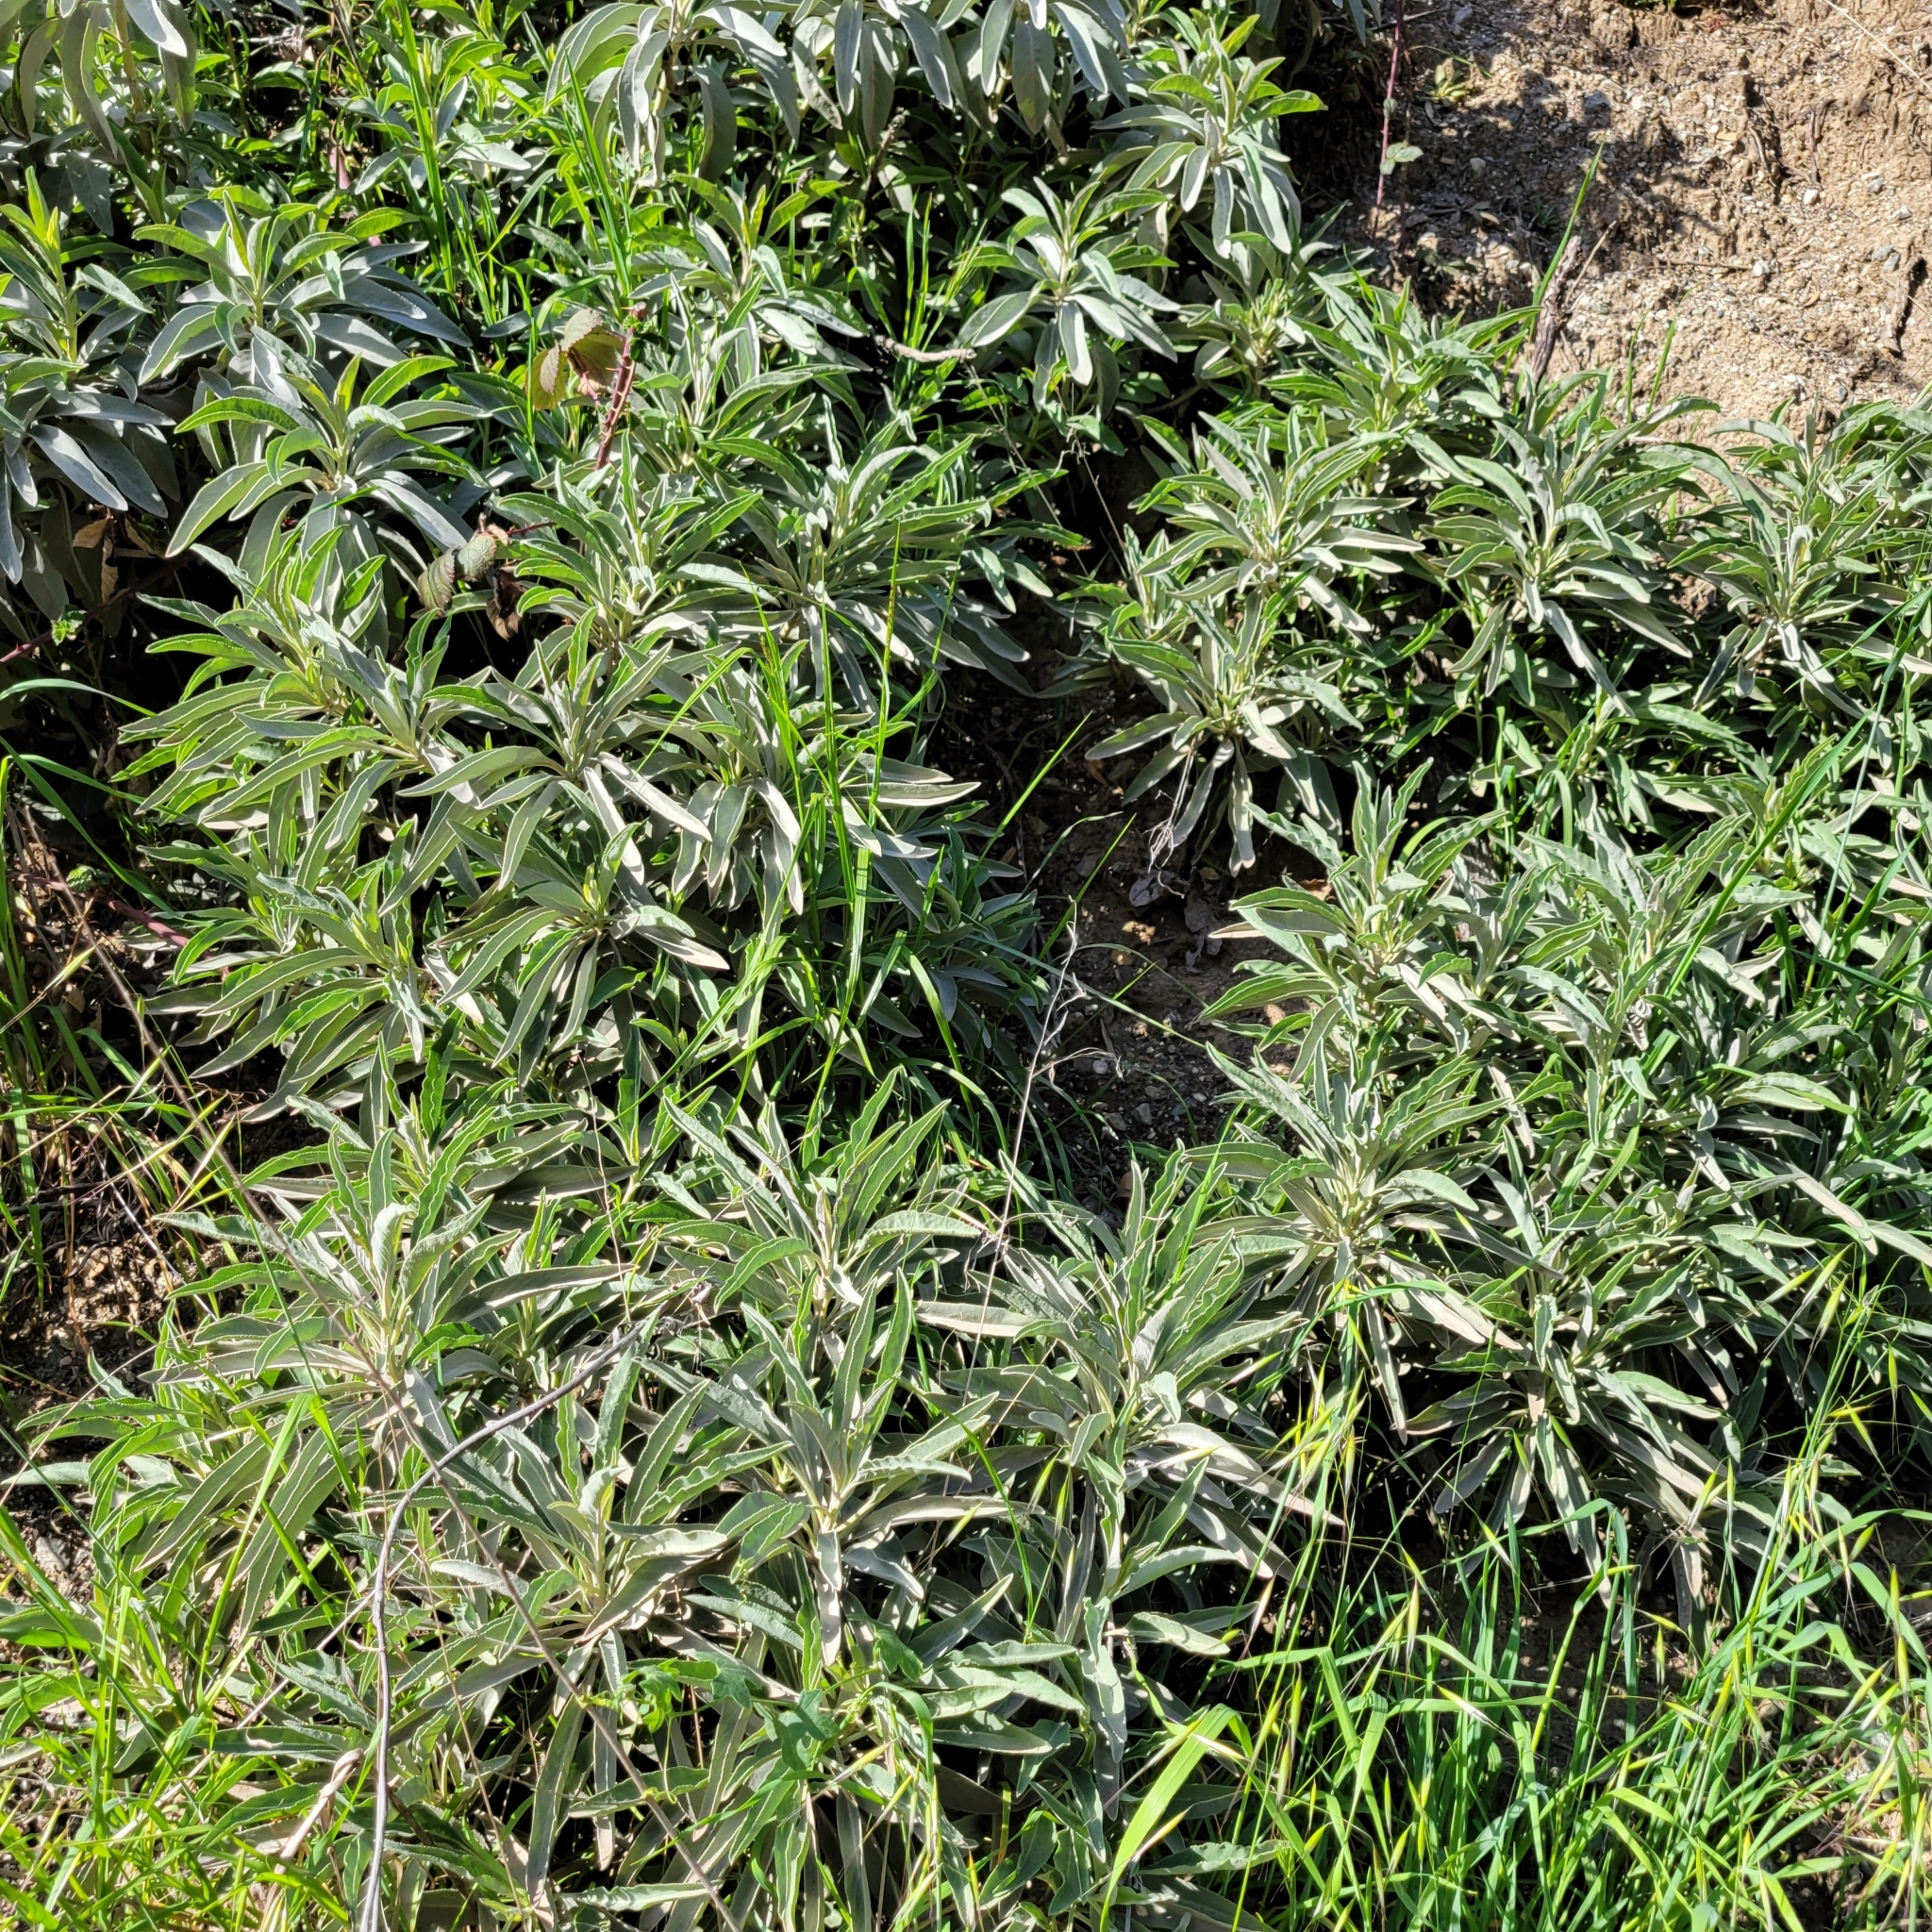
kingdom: Plantae
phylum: Tracheophyta
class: Magnoliopsida
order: Lamiales
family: Lamiaceae
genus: Salvia
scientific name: Salvia apiana
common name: White sage
